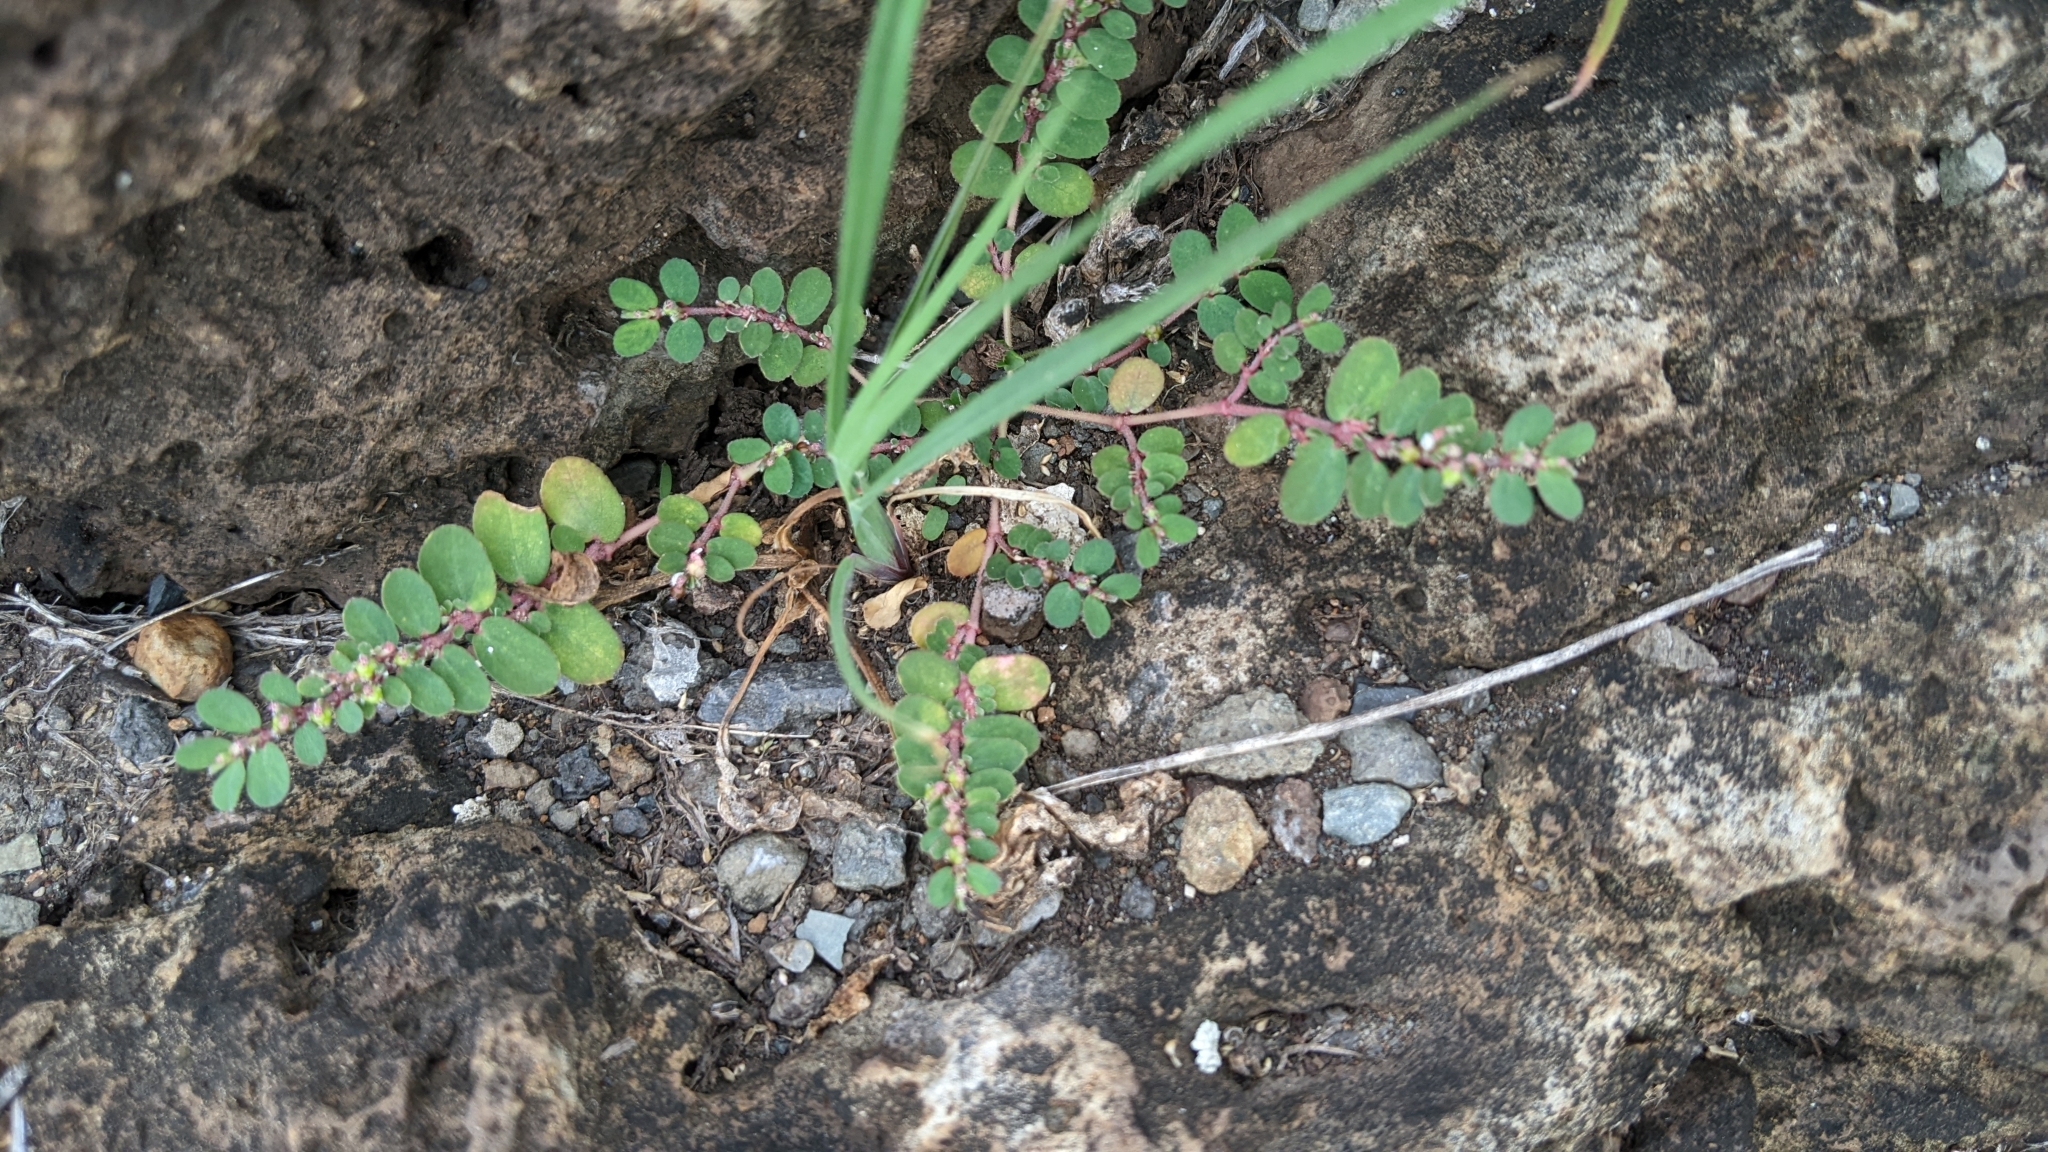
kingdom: Plantae
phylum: Tracheophyta
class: Magnoliopsida
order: Malpighiales
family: Euphorbiaceae
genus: Euphorbia
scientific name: Euphorbia thymifolia
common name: Gulf sandmat
